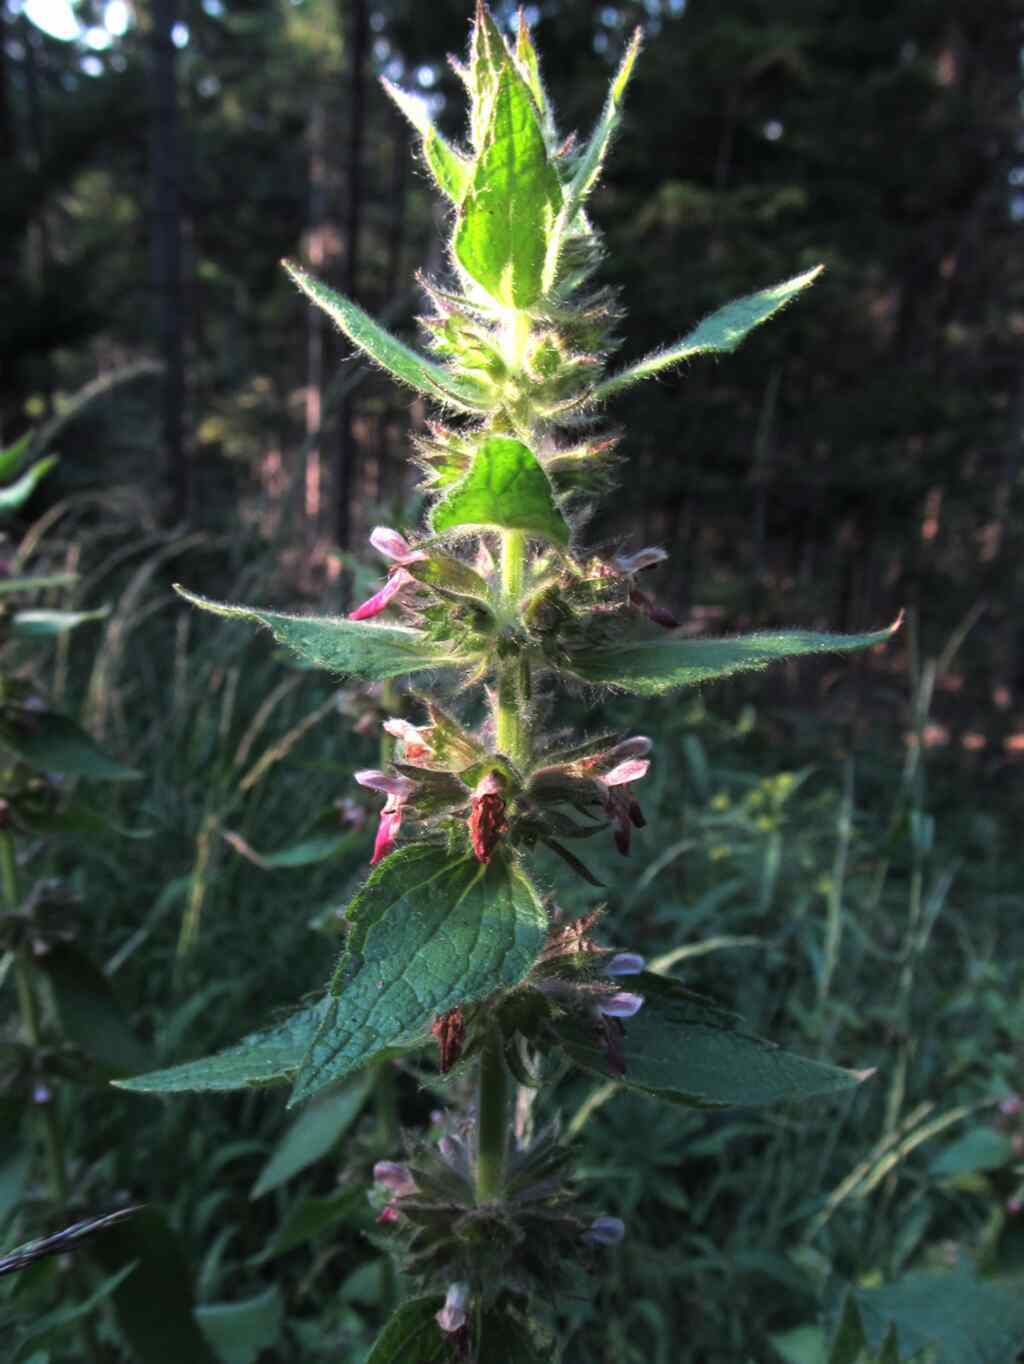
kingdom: Plantae
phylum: Tracheophyta
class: Magnoliopsida
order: Lamiales
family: Lamiaceae
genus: Stachys
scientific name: Stachys alpina
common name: Limestone woundwort
